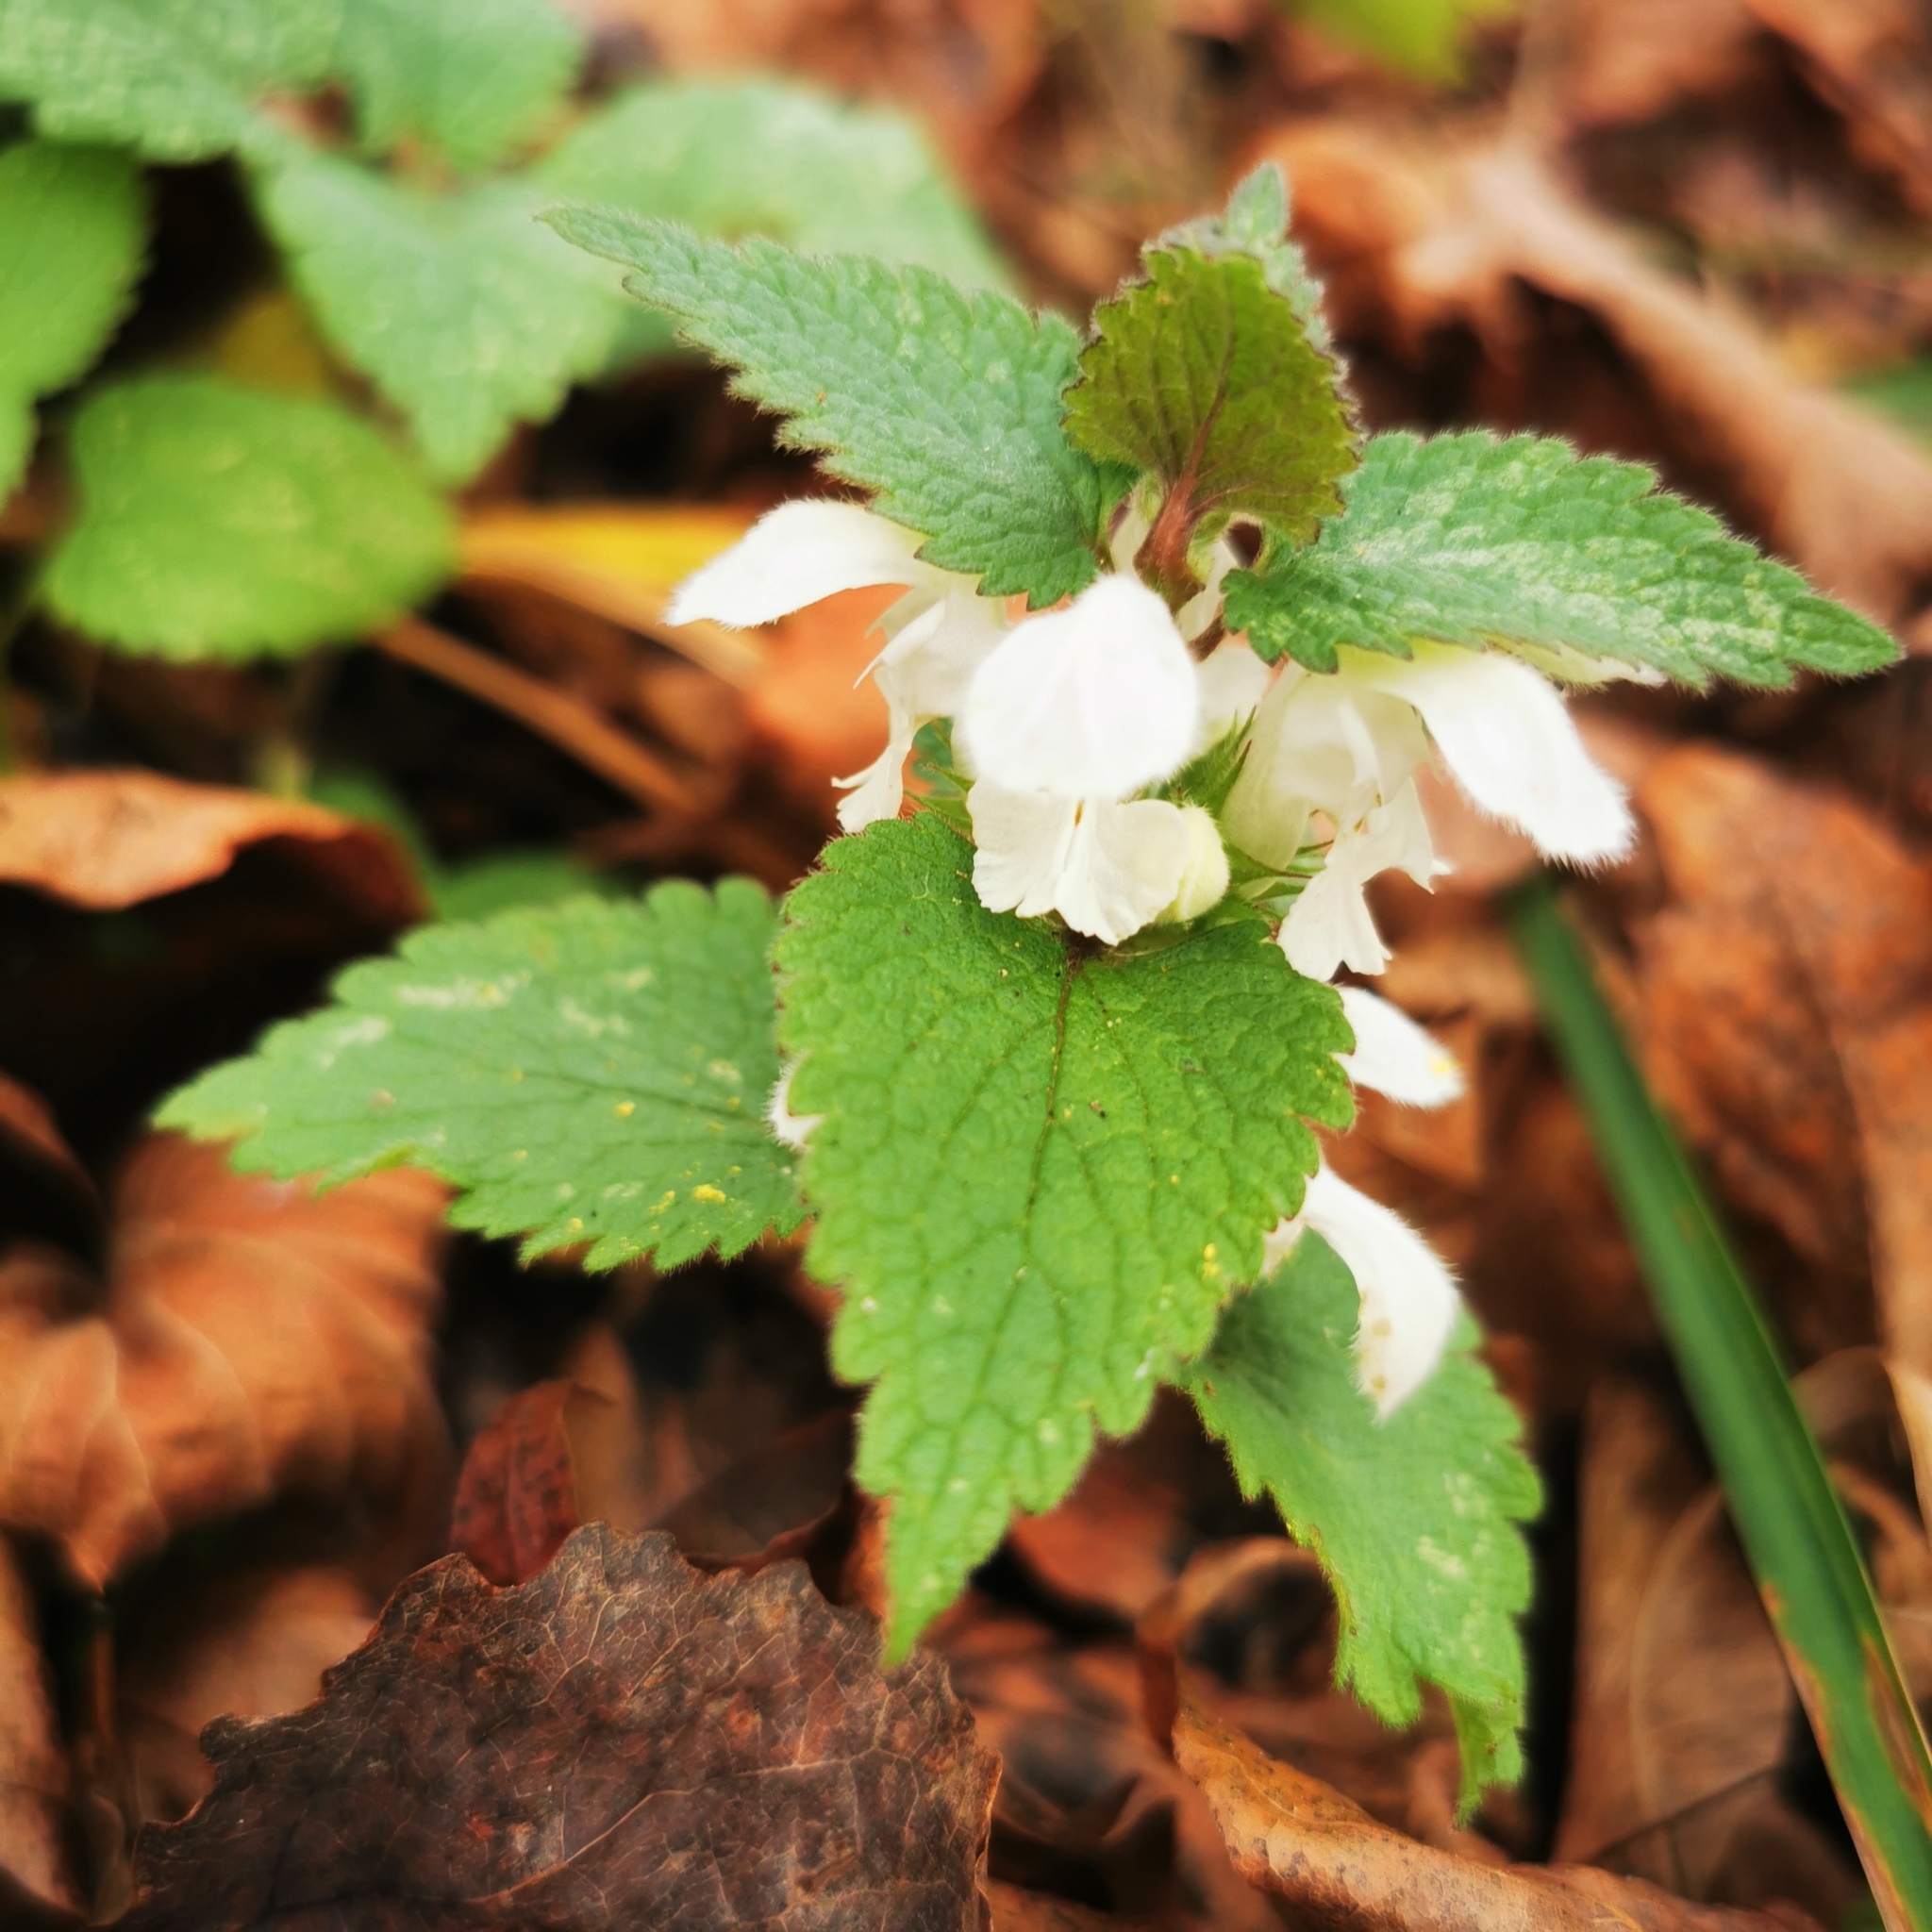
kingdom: Plantae
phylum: Tracheophyta
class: Magnoliopsida
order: Lamiales
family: Lamiaceae
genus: Lamium
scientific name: Lamium album
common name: White dead-nettle
